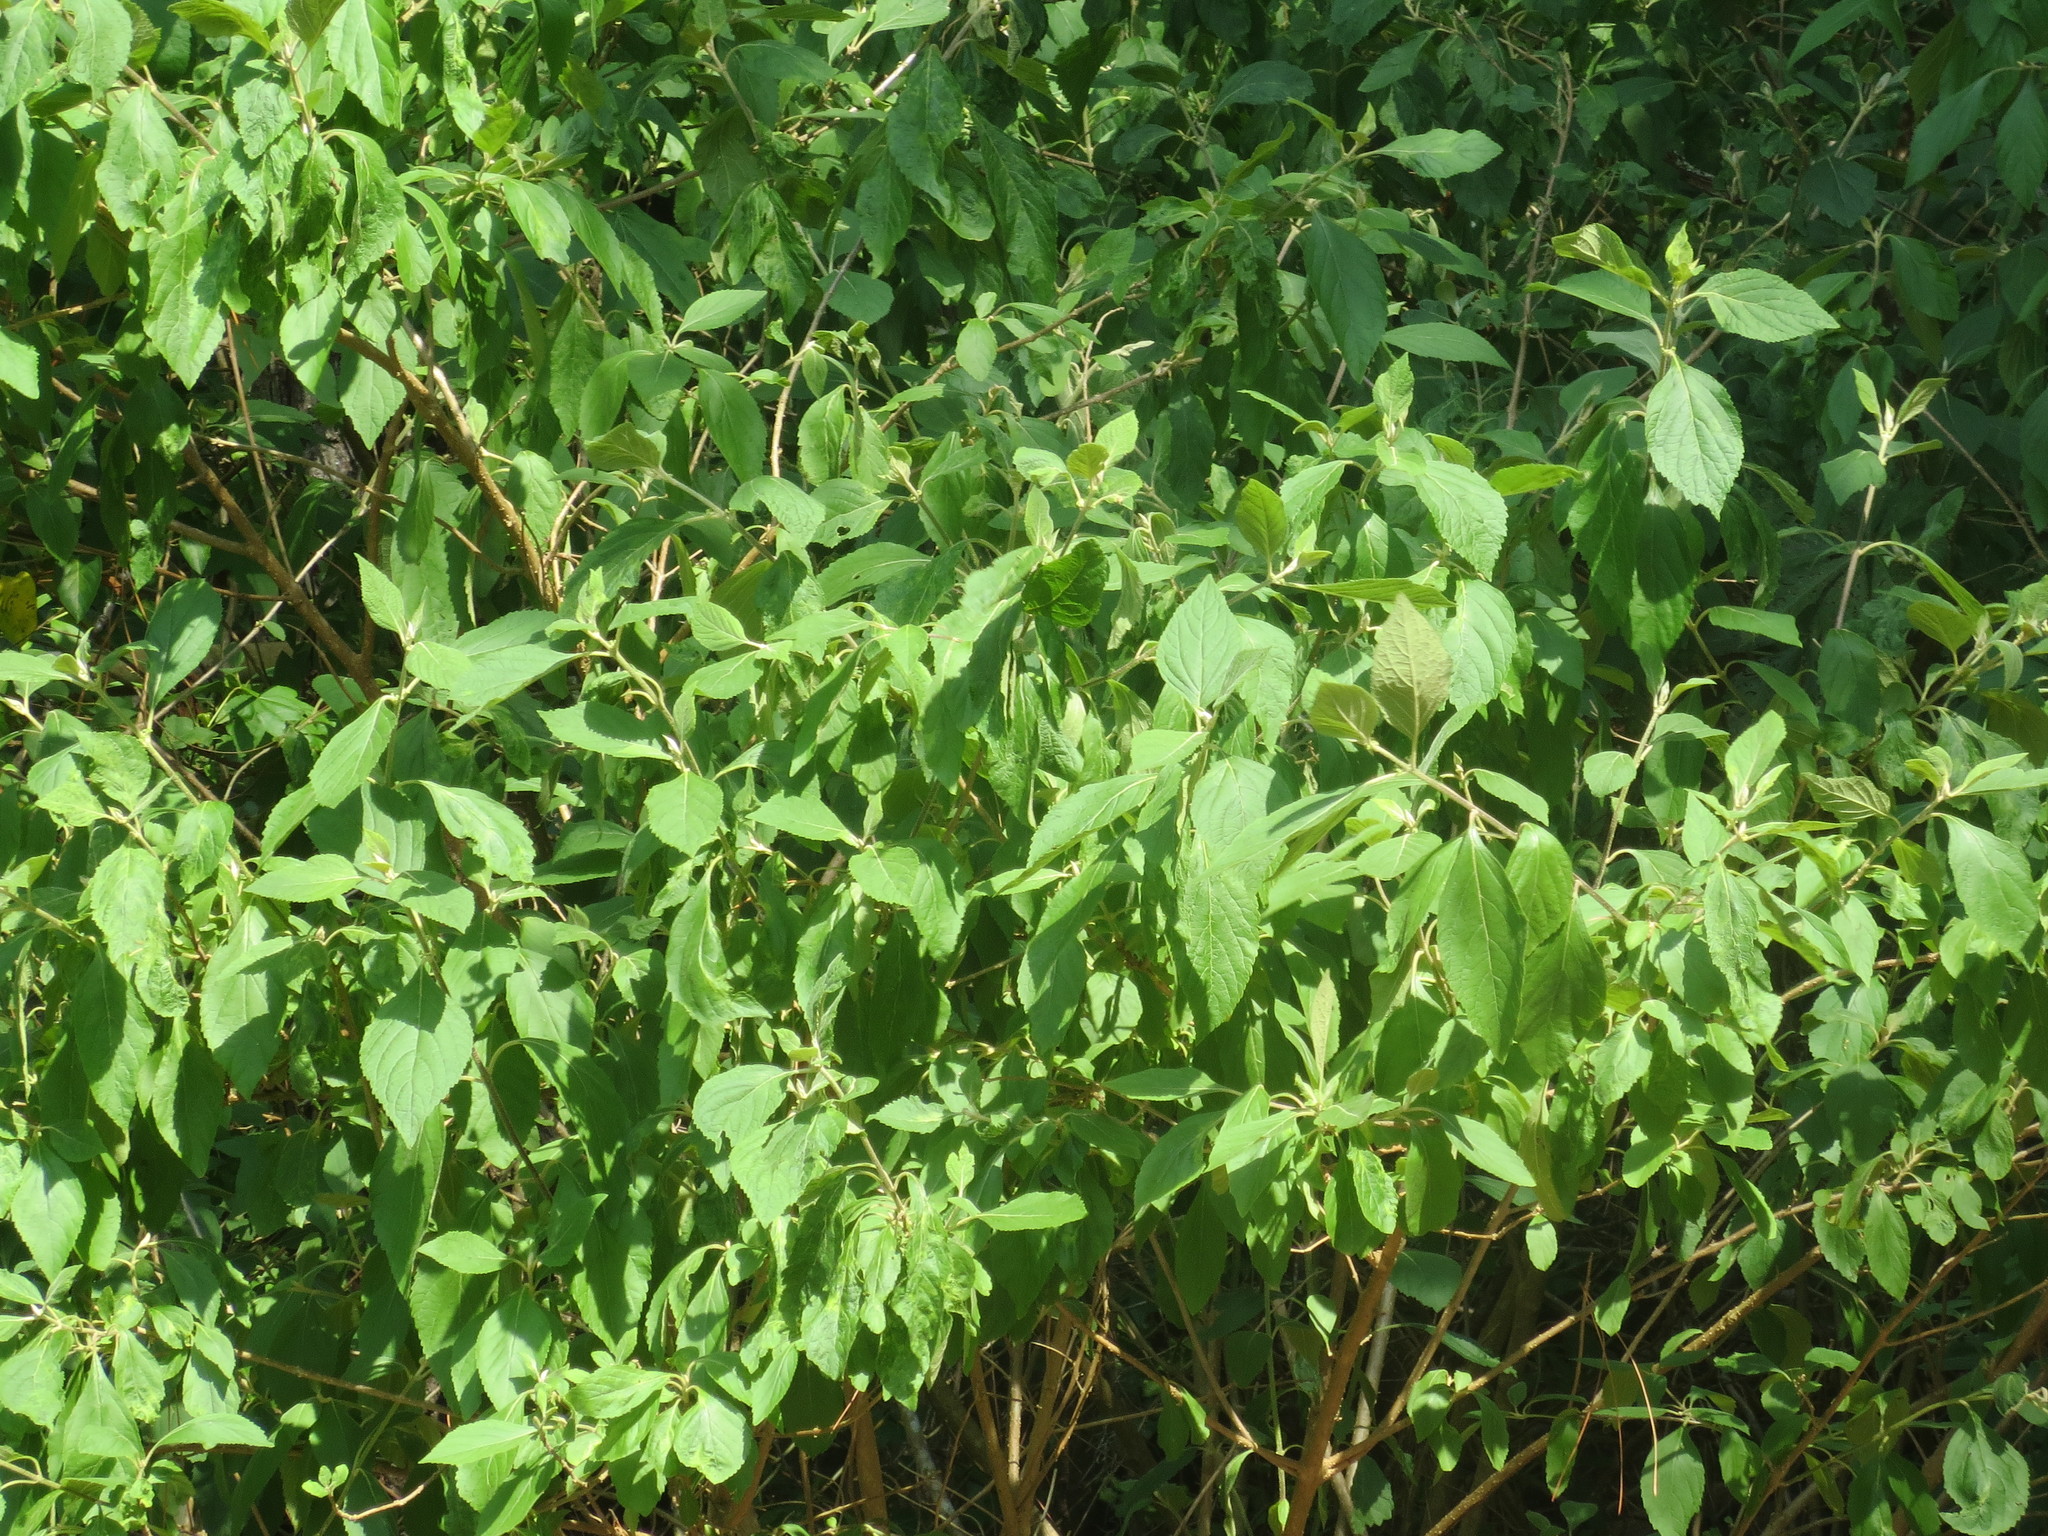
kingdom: Plantae
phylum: Tracheophyta
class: Magnoliopsida
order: Lamiales
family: Lamiaceae
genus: Callicarpa
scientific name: Callicarpa americana
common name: American beautyberry
